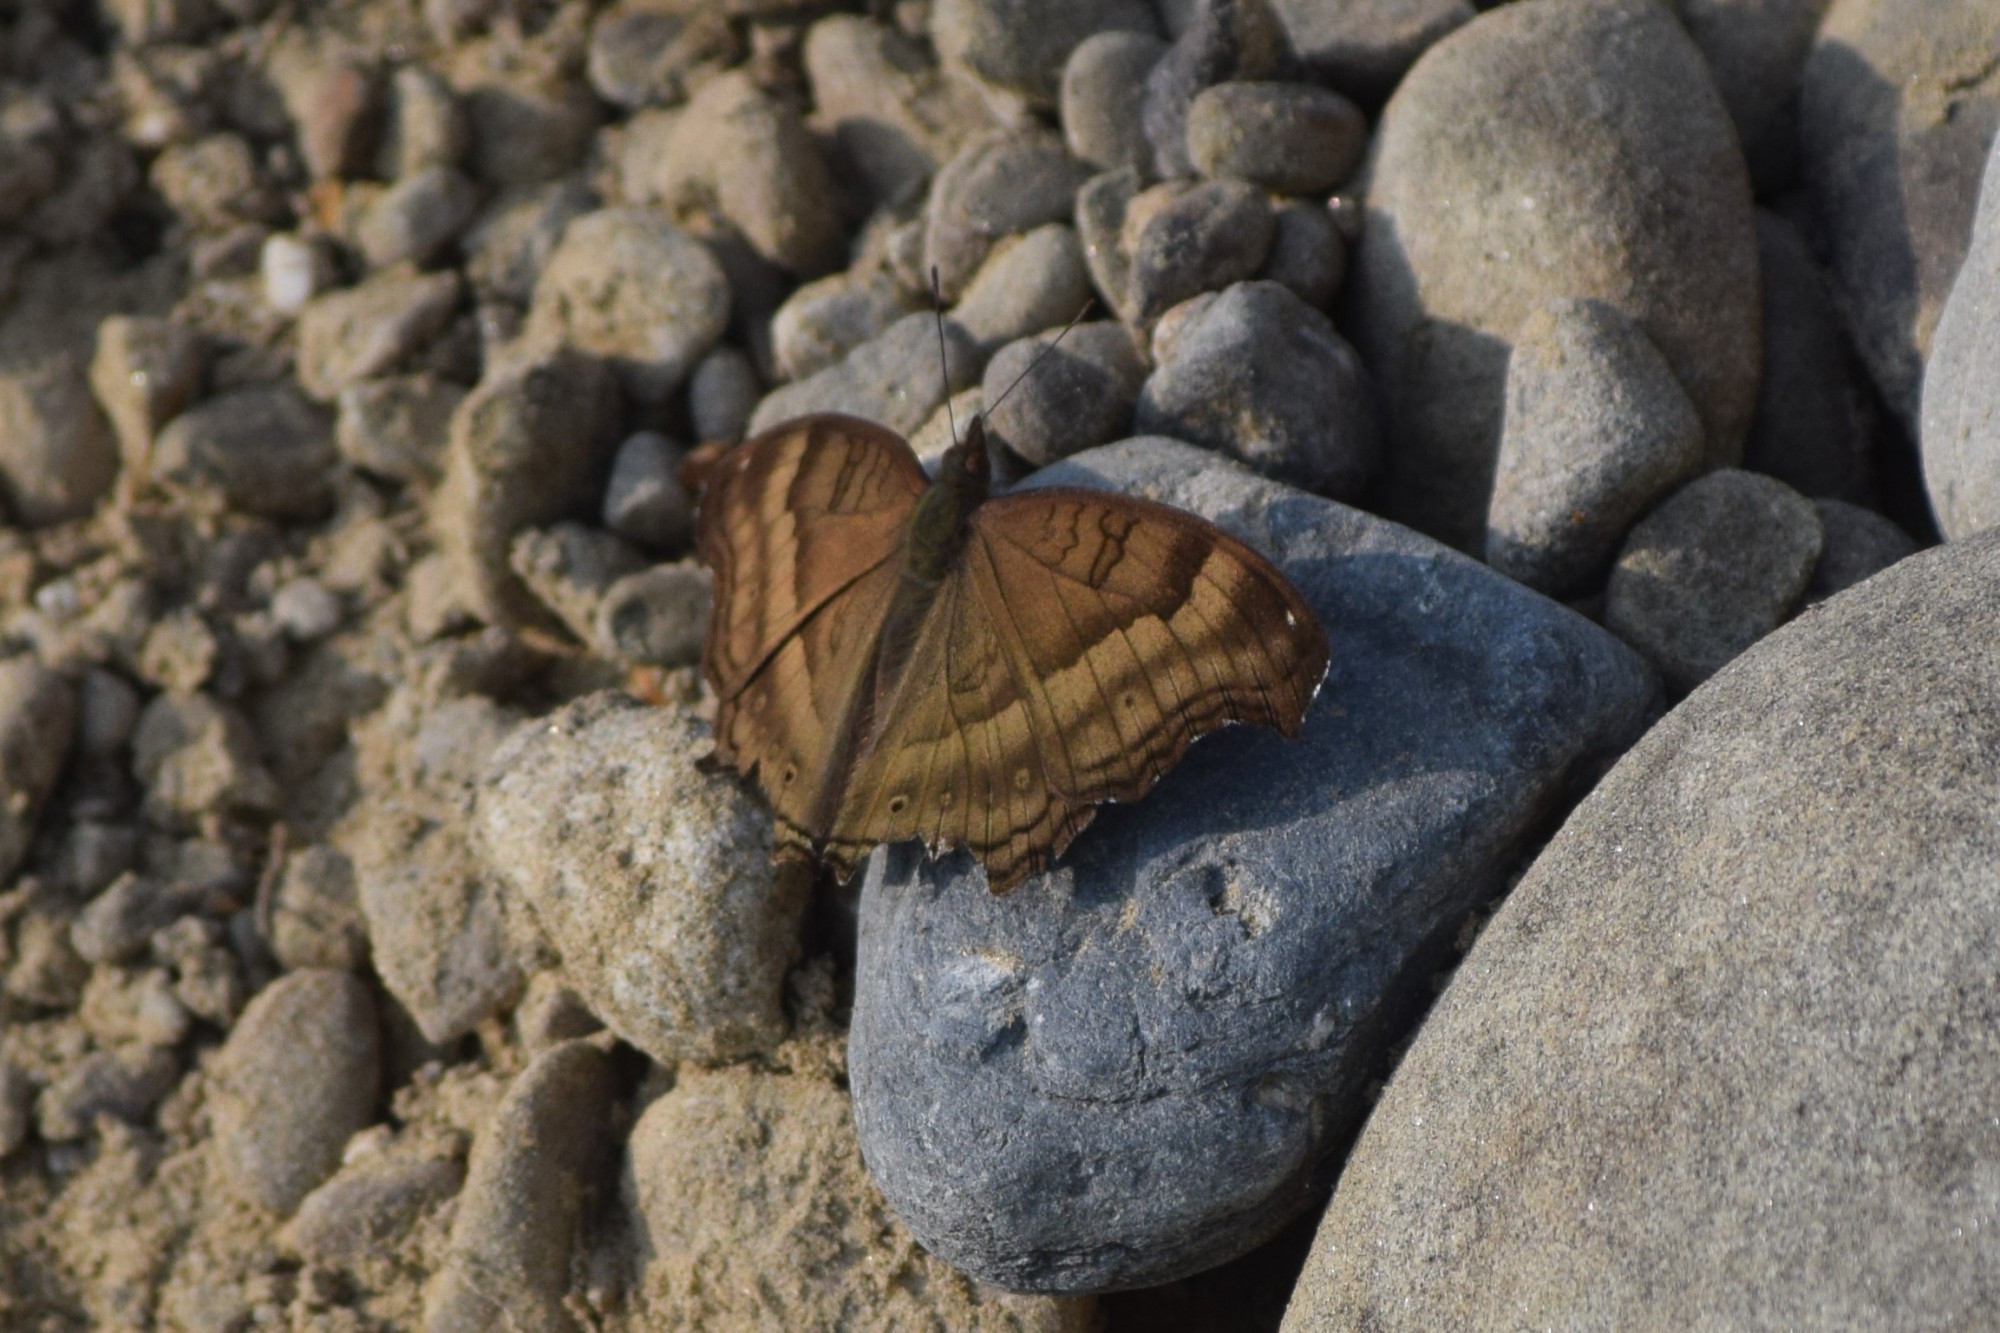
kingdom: Animalia
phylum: Arthropoda
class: Insecta
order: Lepidoptera
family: Nymphalidae
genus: Junonia
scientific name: Junonia iphita
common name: Chocolate pansy
